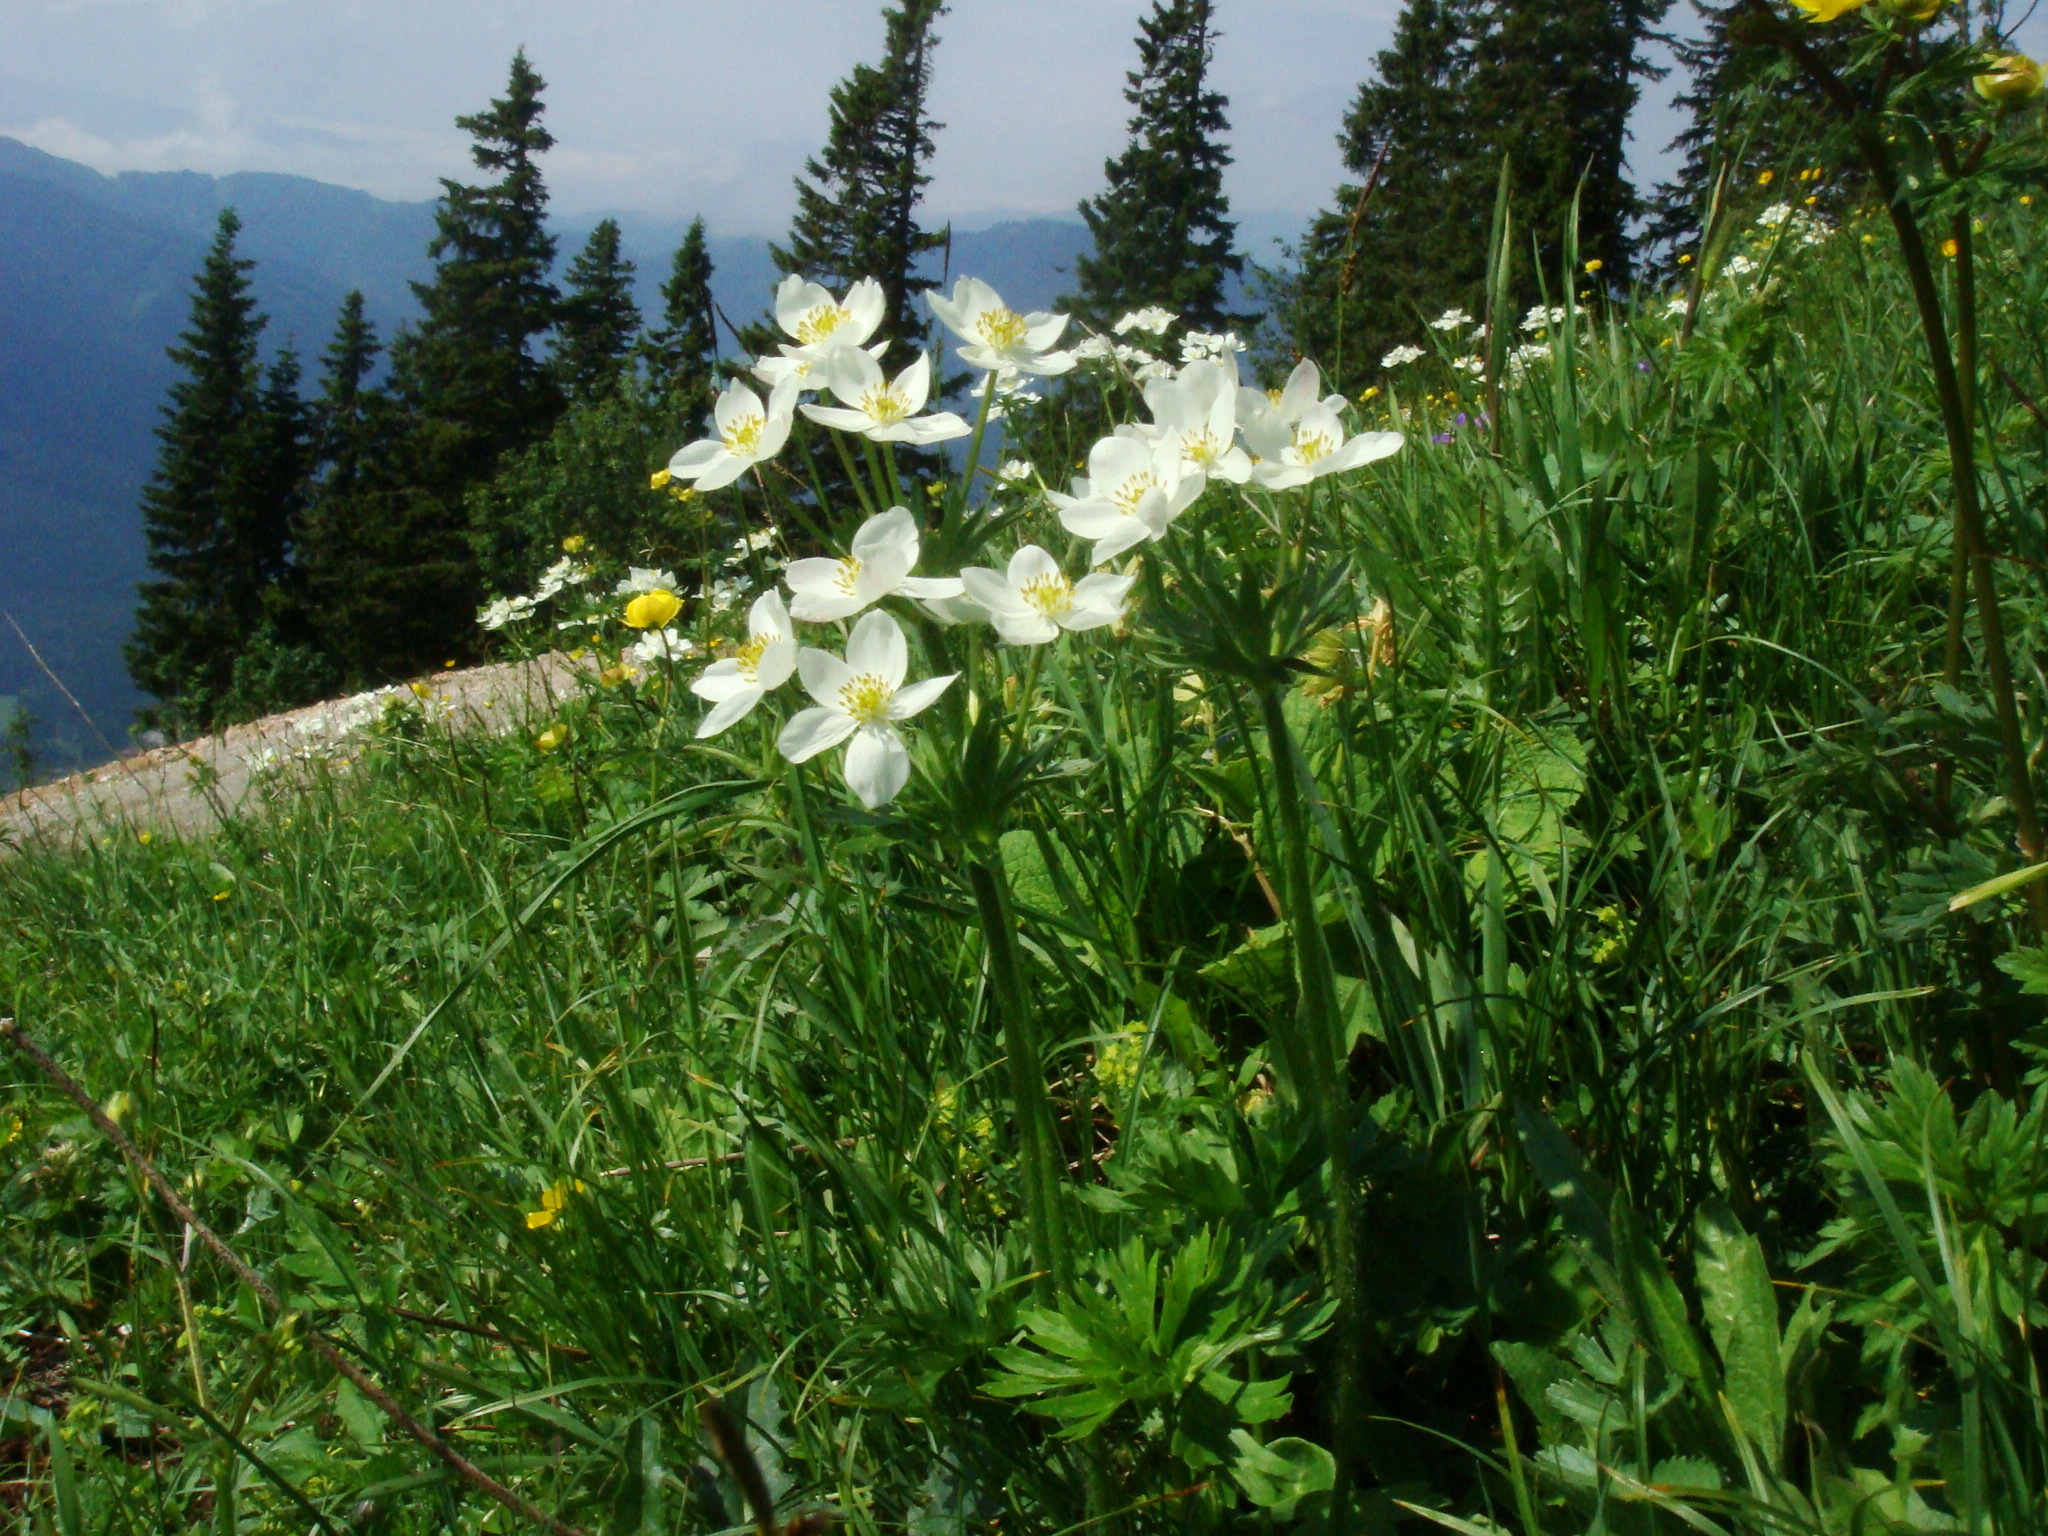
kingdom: Plantae
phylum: Tracheophyta
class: Magnoliopsida
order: Ranunculales
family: Ranunculaceae
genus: Anemonastrum
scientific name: Anemonastrum narcissiflorum
